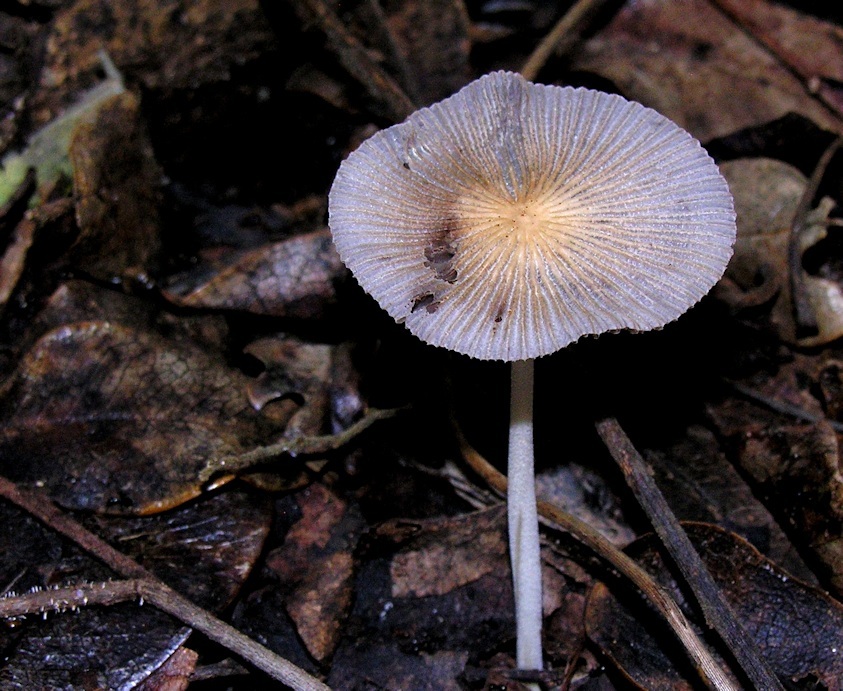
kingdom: Fungi
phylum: Basidiomycota
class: Agaricomycetes
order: Agaricales
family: Psathyrellaceae
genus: Parasola
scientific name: Parasola plicatilis
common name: Pleated inkcap
